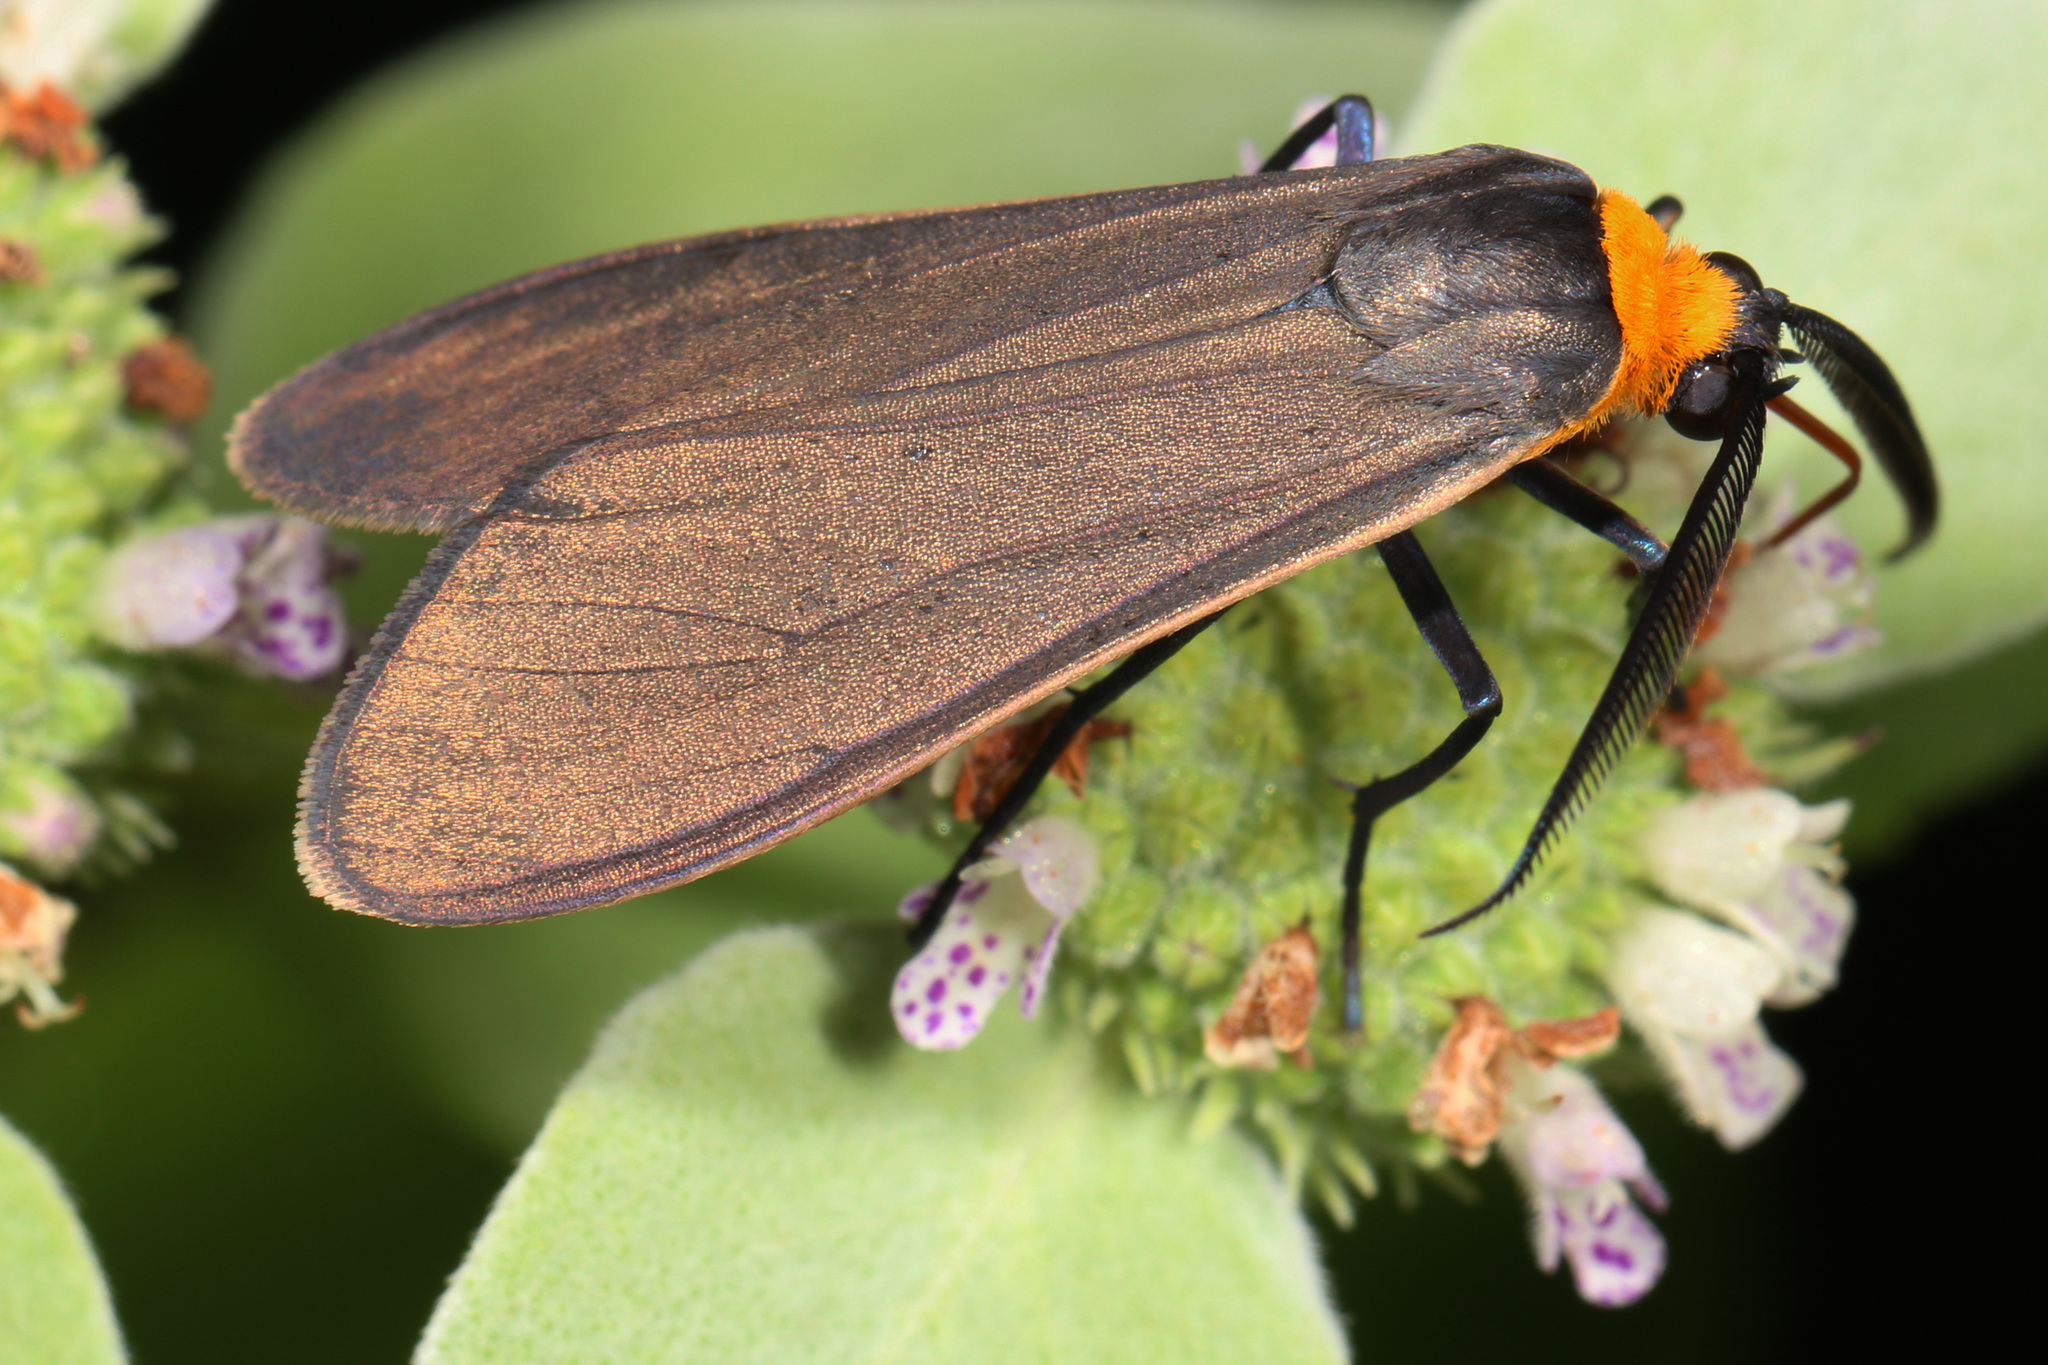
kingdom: Animalia
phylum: Arthropoda
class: Insecta
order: Lepidoptera
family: Erebidae
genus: Cisseps
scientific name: Cisseps fulvicollis
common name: Yellow-collared scape moth
